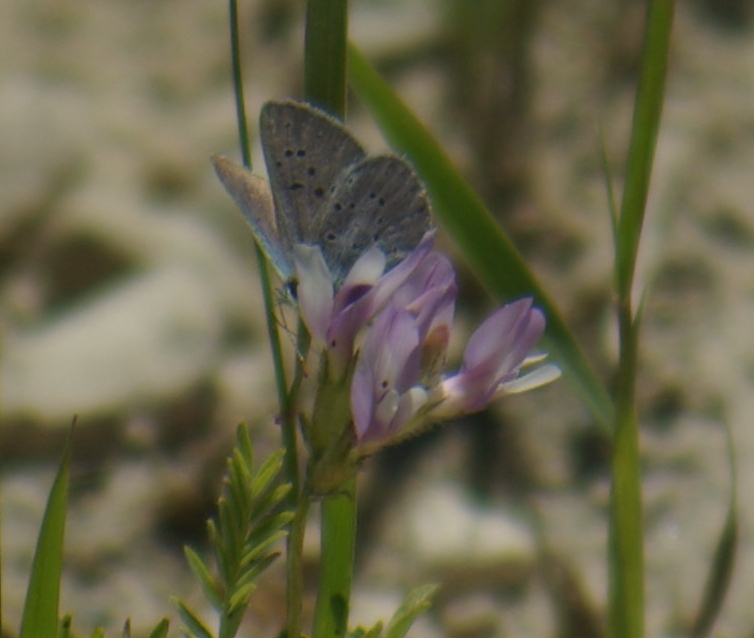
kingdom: Animalia
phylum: Arthropoda
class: Insecta
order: Lepidoptera
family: Lycaenidae
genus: Glaucopsyche
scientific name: Glaucopsyche lygdamus
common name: Silvery blue
